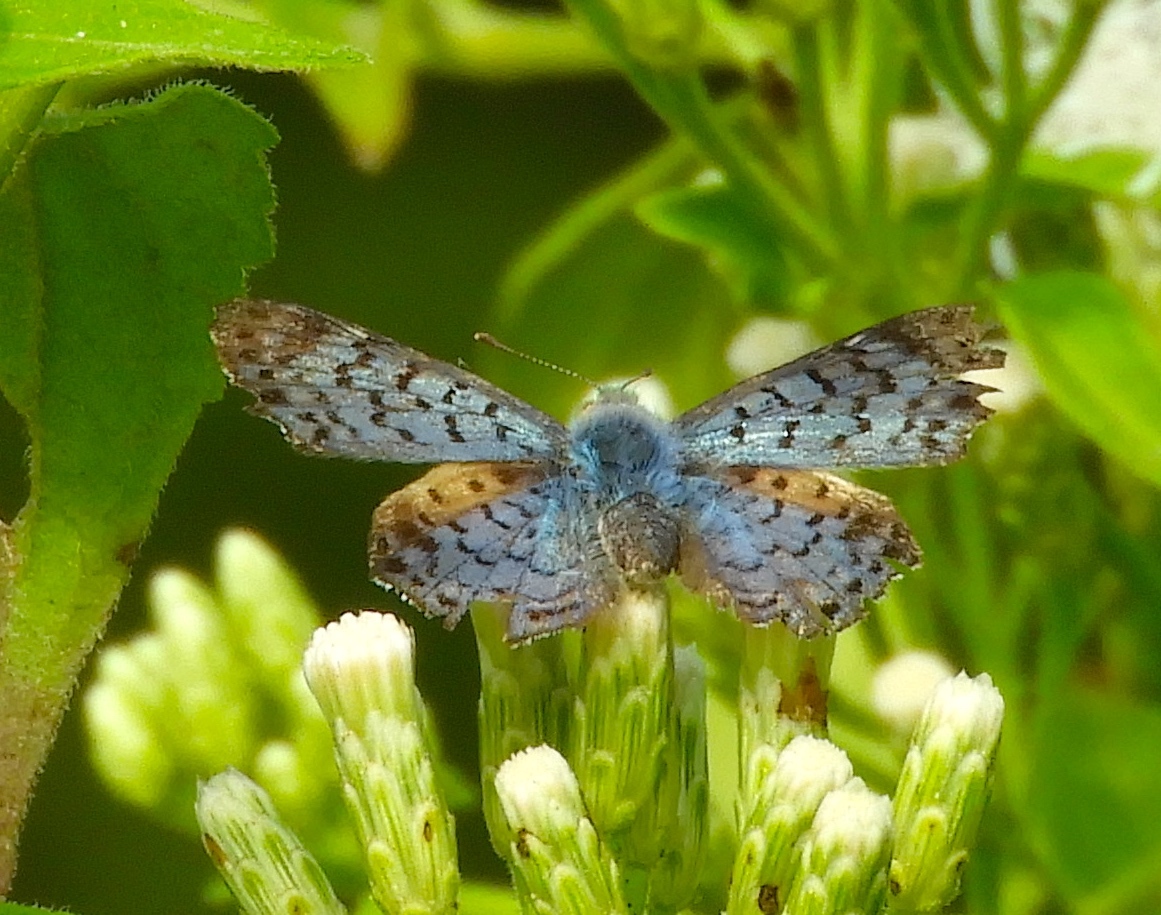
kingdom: Animalia
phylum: Arthropoda
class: Insecta
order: Lepidoptera
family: Riodinidae
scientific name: Riodinidae
